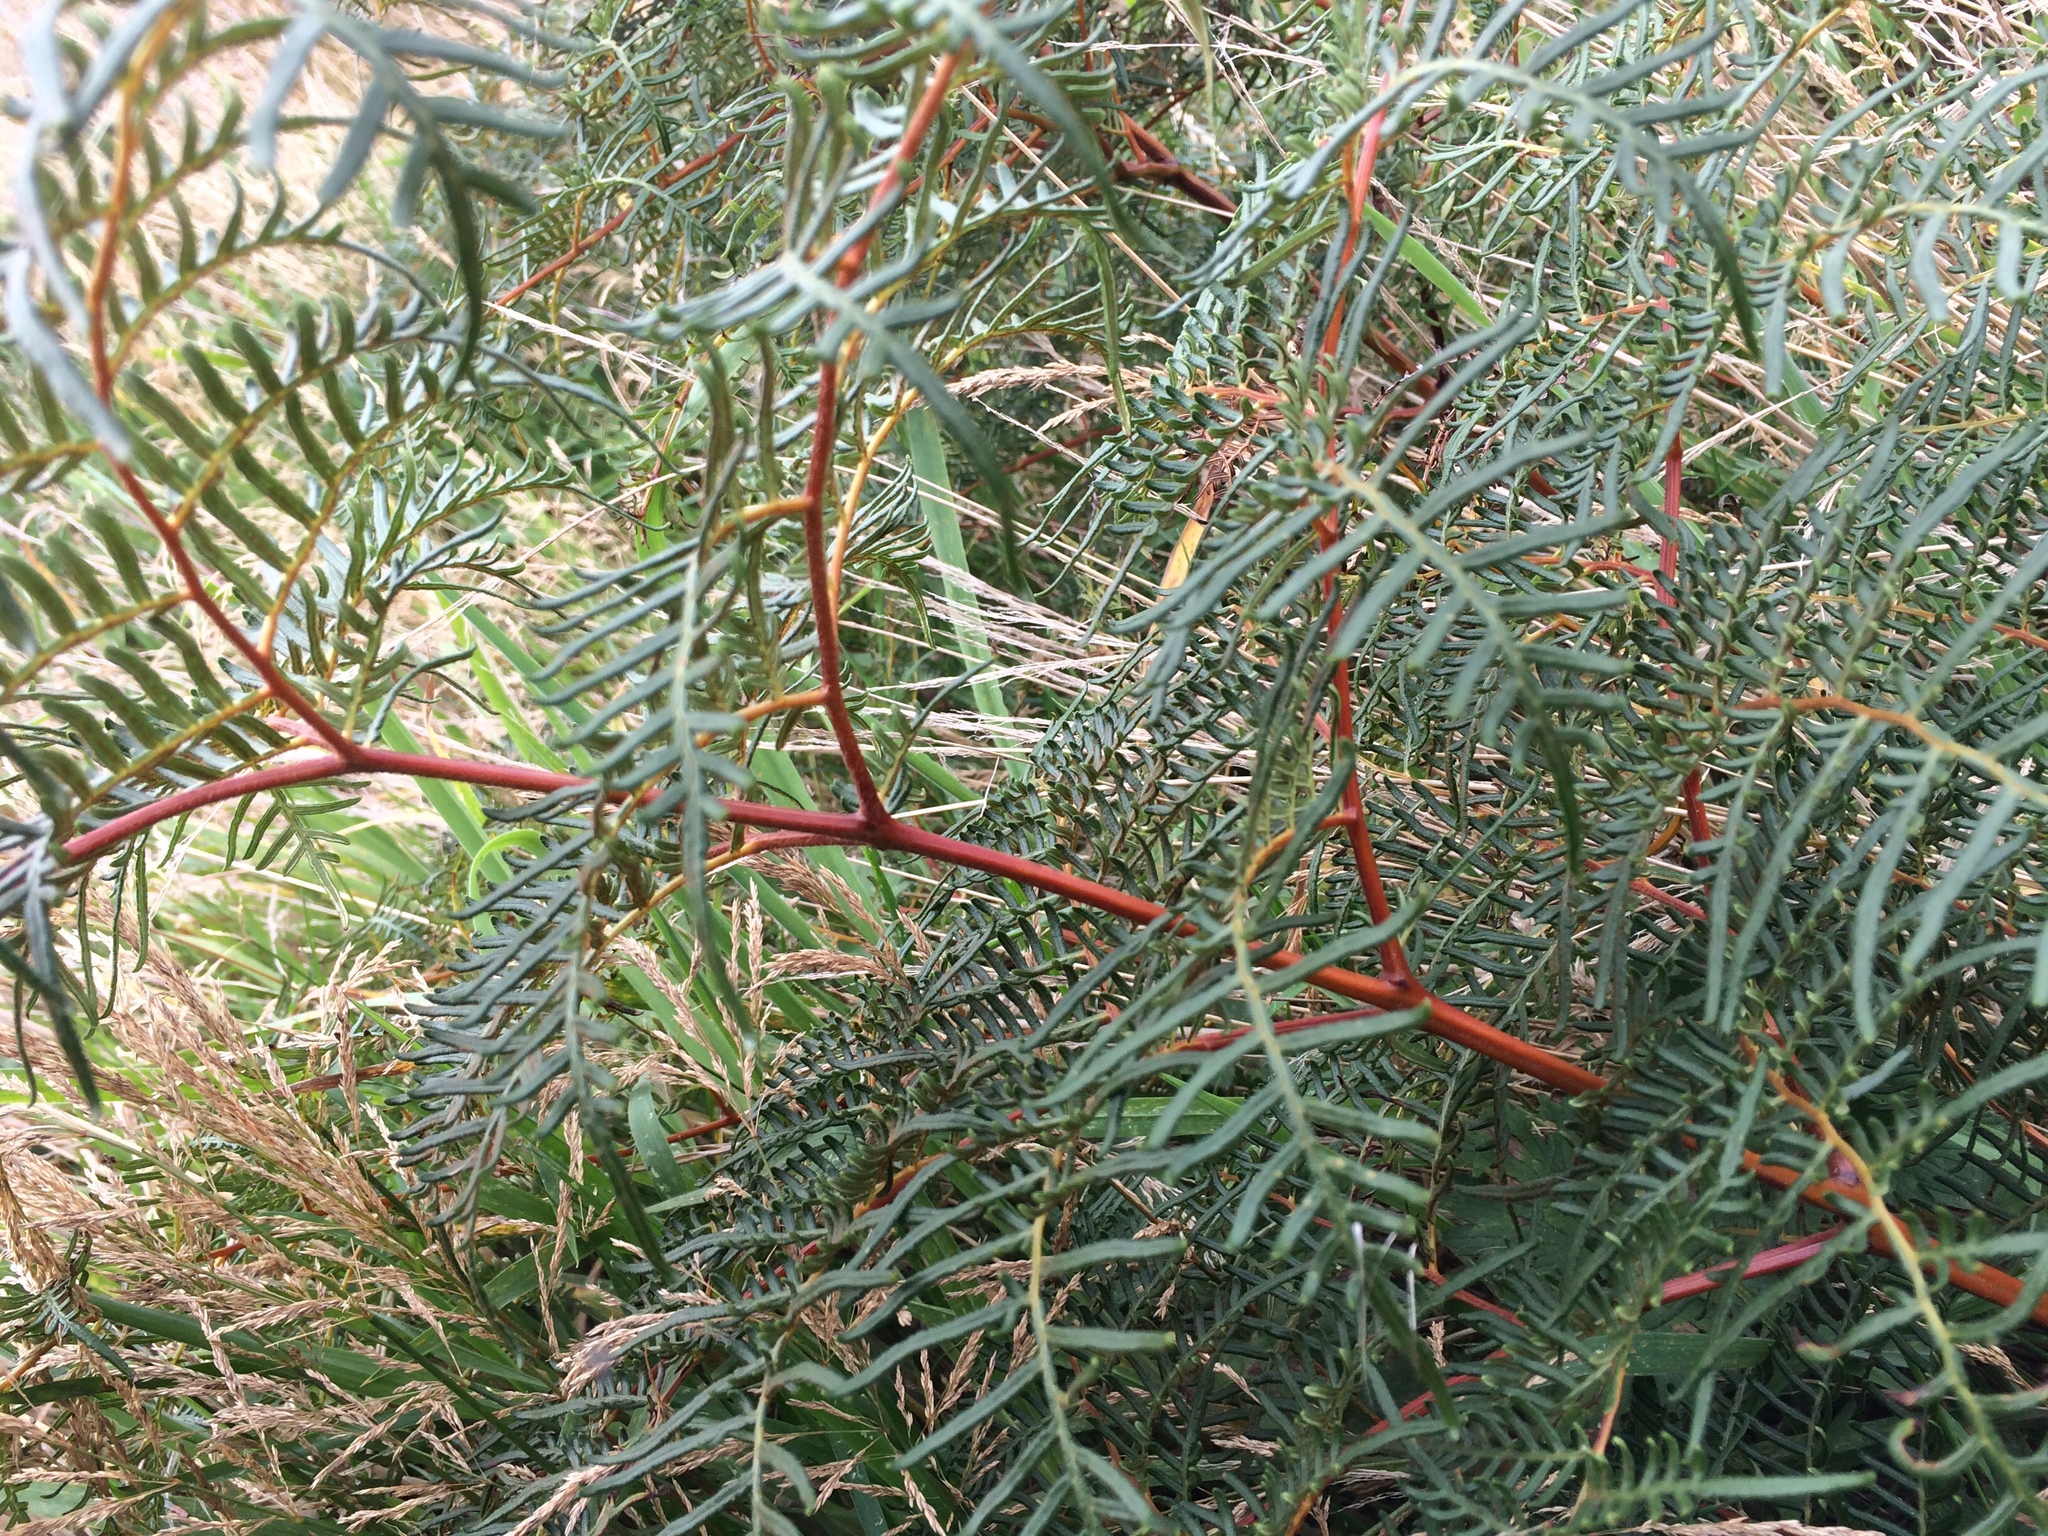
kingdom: Plantae
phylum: Tracheophyta
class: Polypodiopsida
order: Polypodiales
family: Dennstaedtiaceae
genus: Pteridium
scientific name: Pteridium esculentum
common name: Bracken fern
